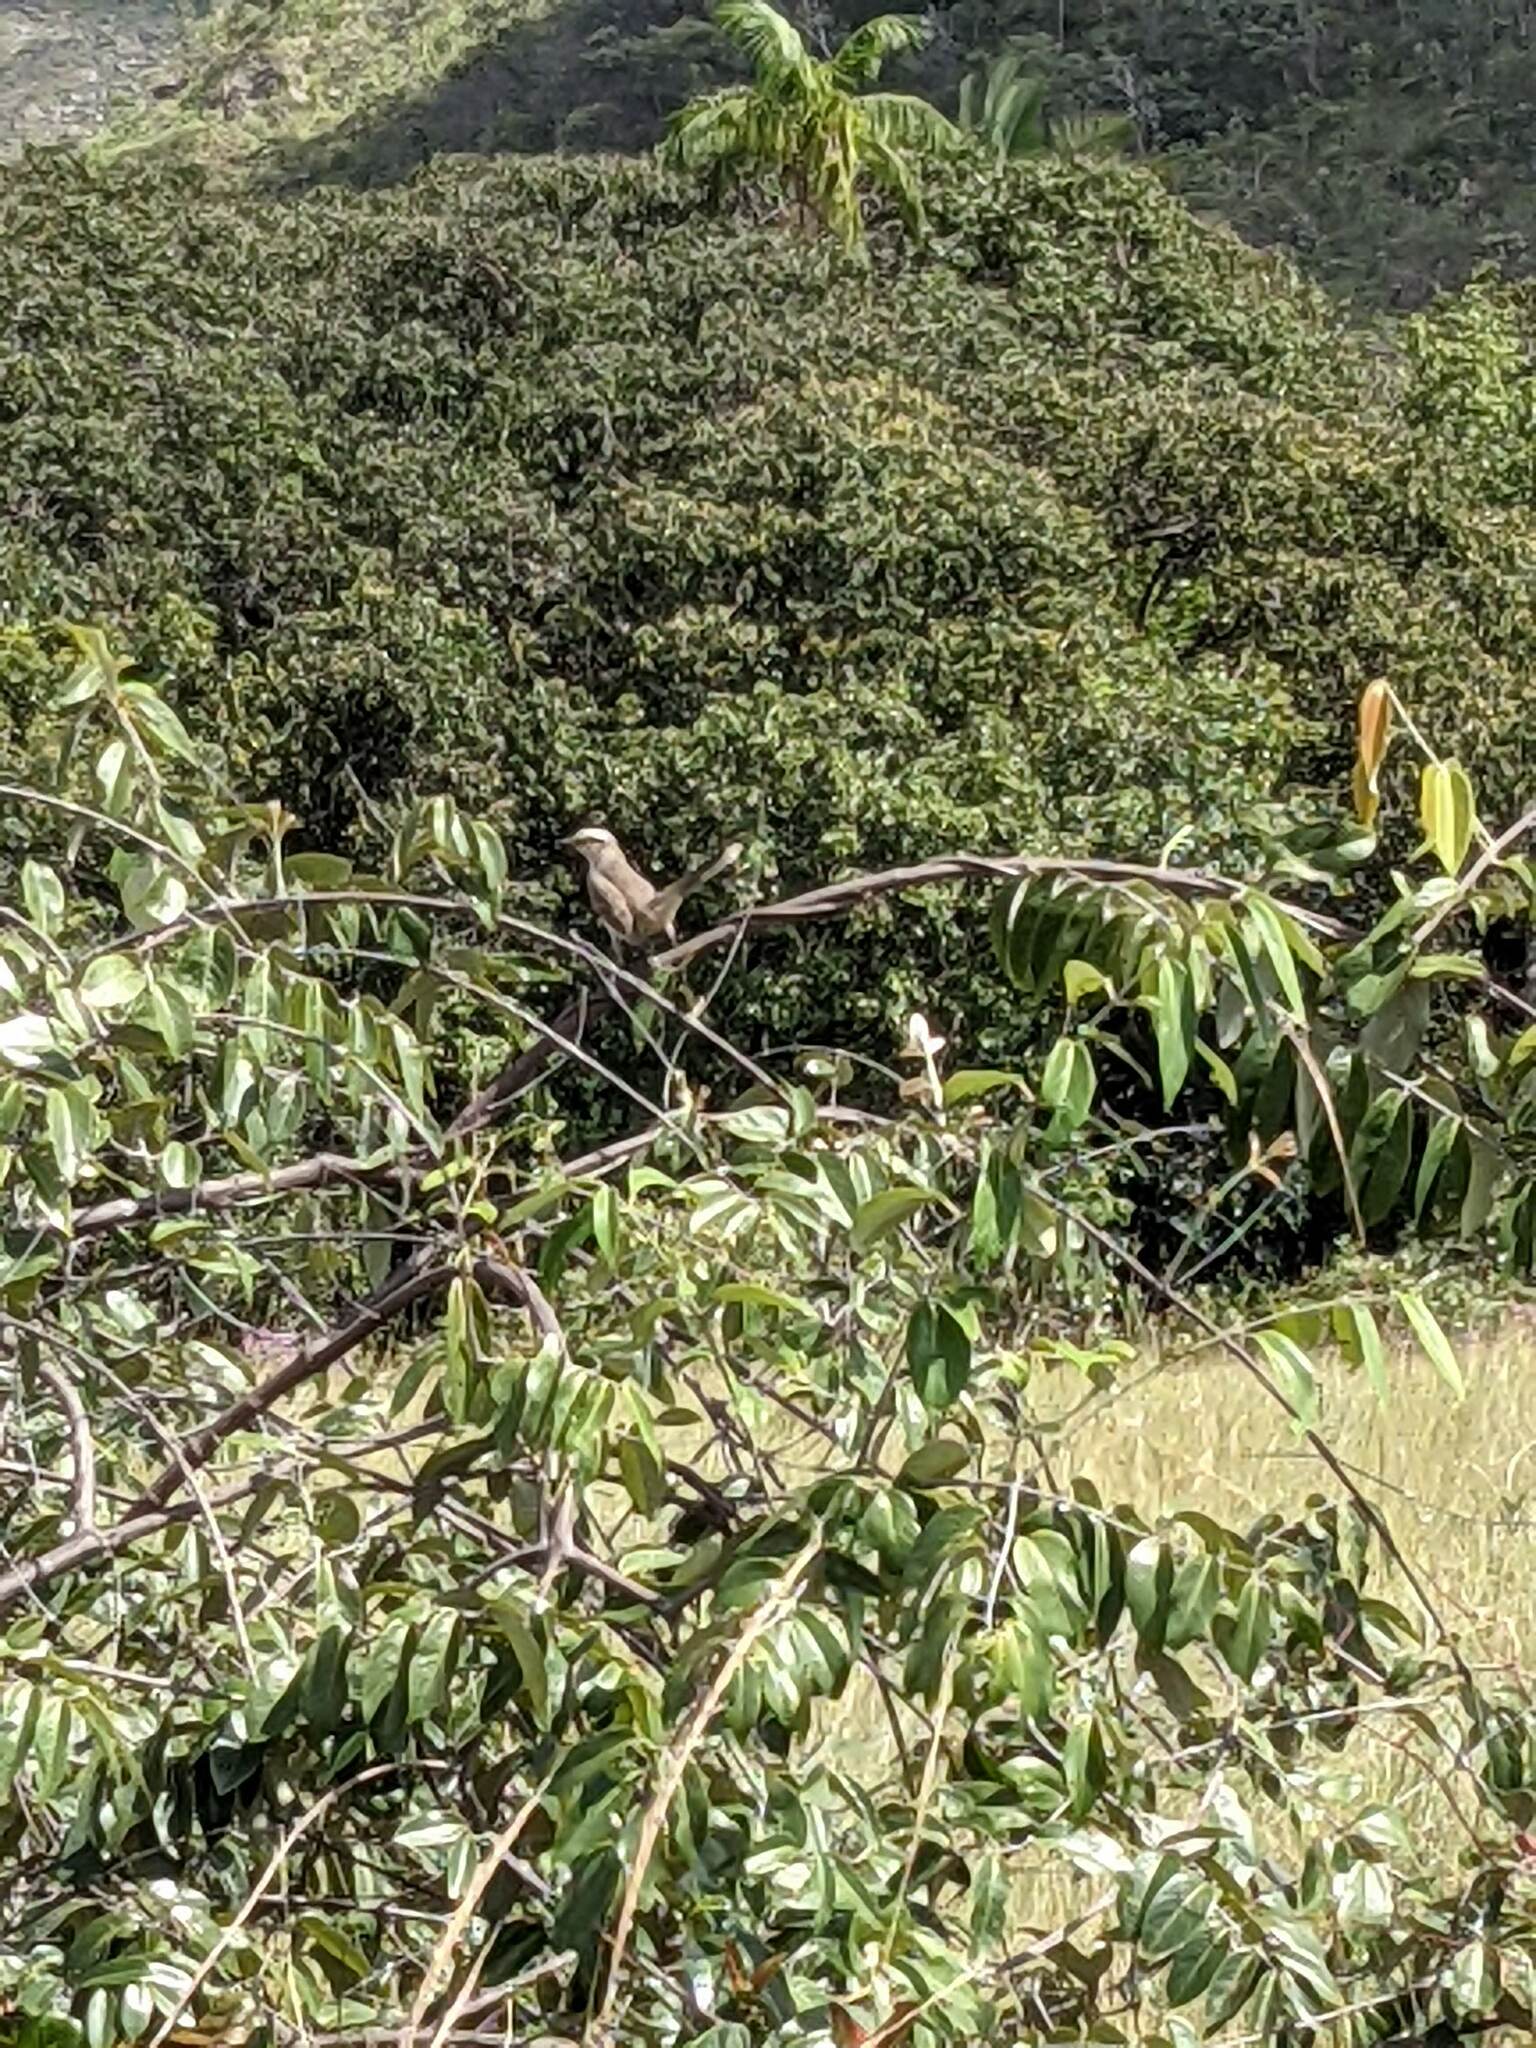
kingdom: Animalia
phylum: Chordata
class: Aves
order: Passeriformes
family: Mimidae
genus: Mimus
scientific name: Mimus saturninus
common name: Chalk-browed mockingbird
